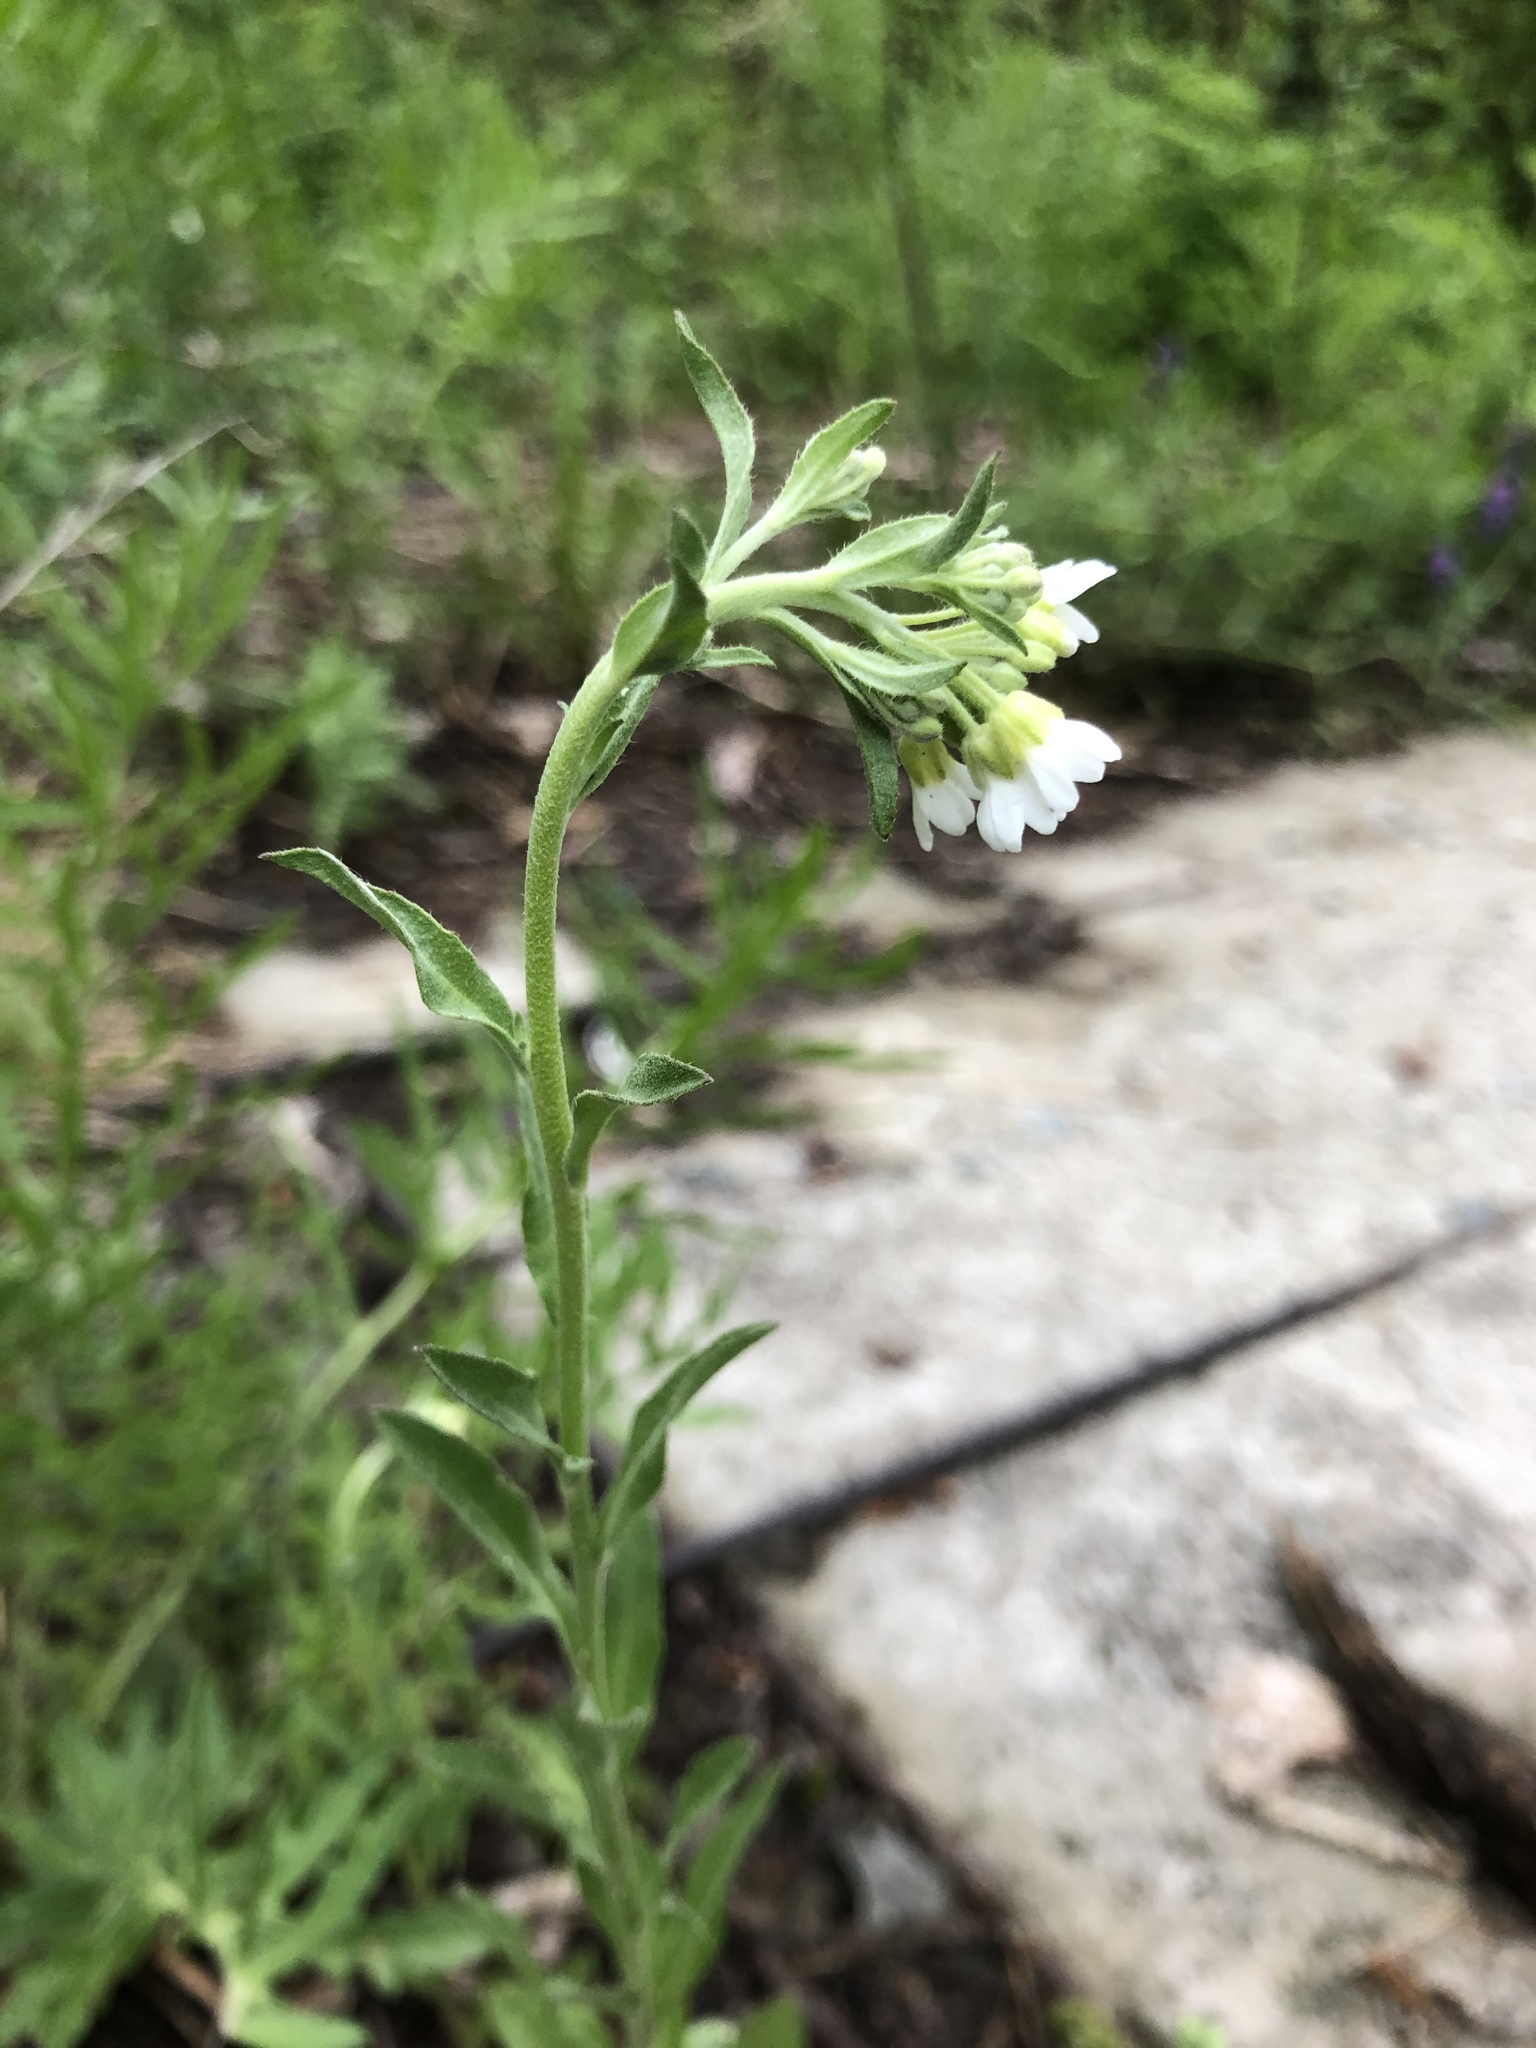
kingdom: Plantae
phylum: Tracheophyta
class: Magnoliopsida
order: Brassicales
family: Brassicaceae
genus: Berteroa
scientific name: Berteroa incana
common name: Hoary alison
